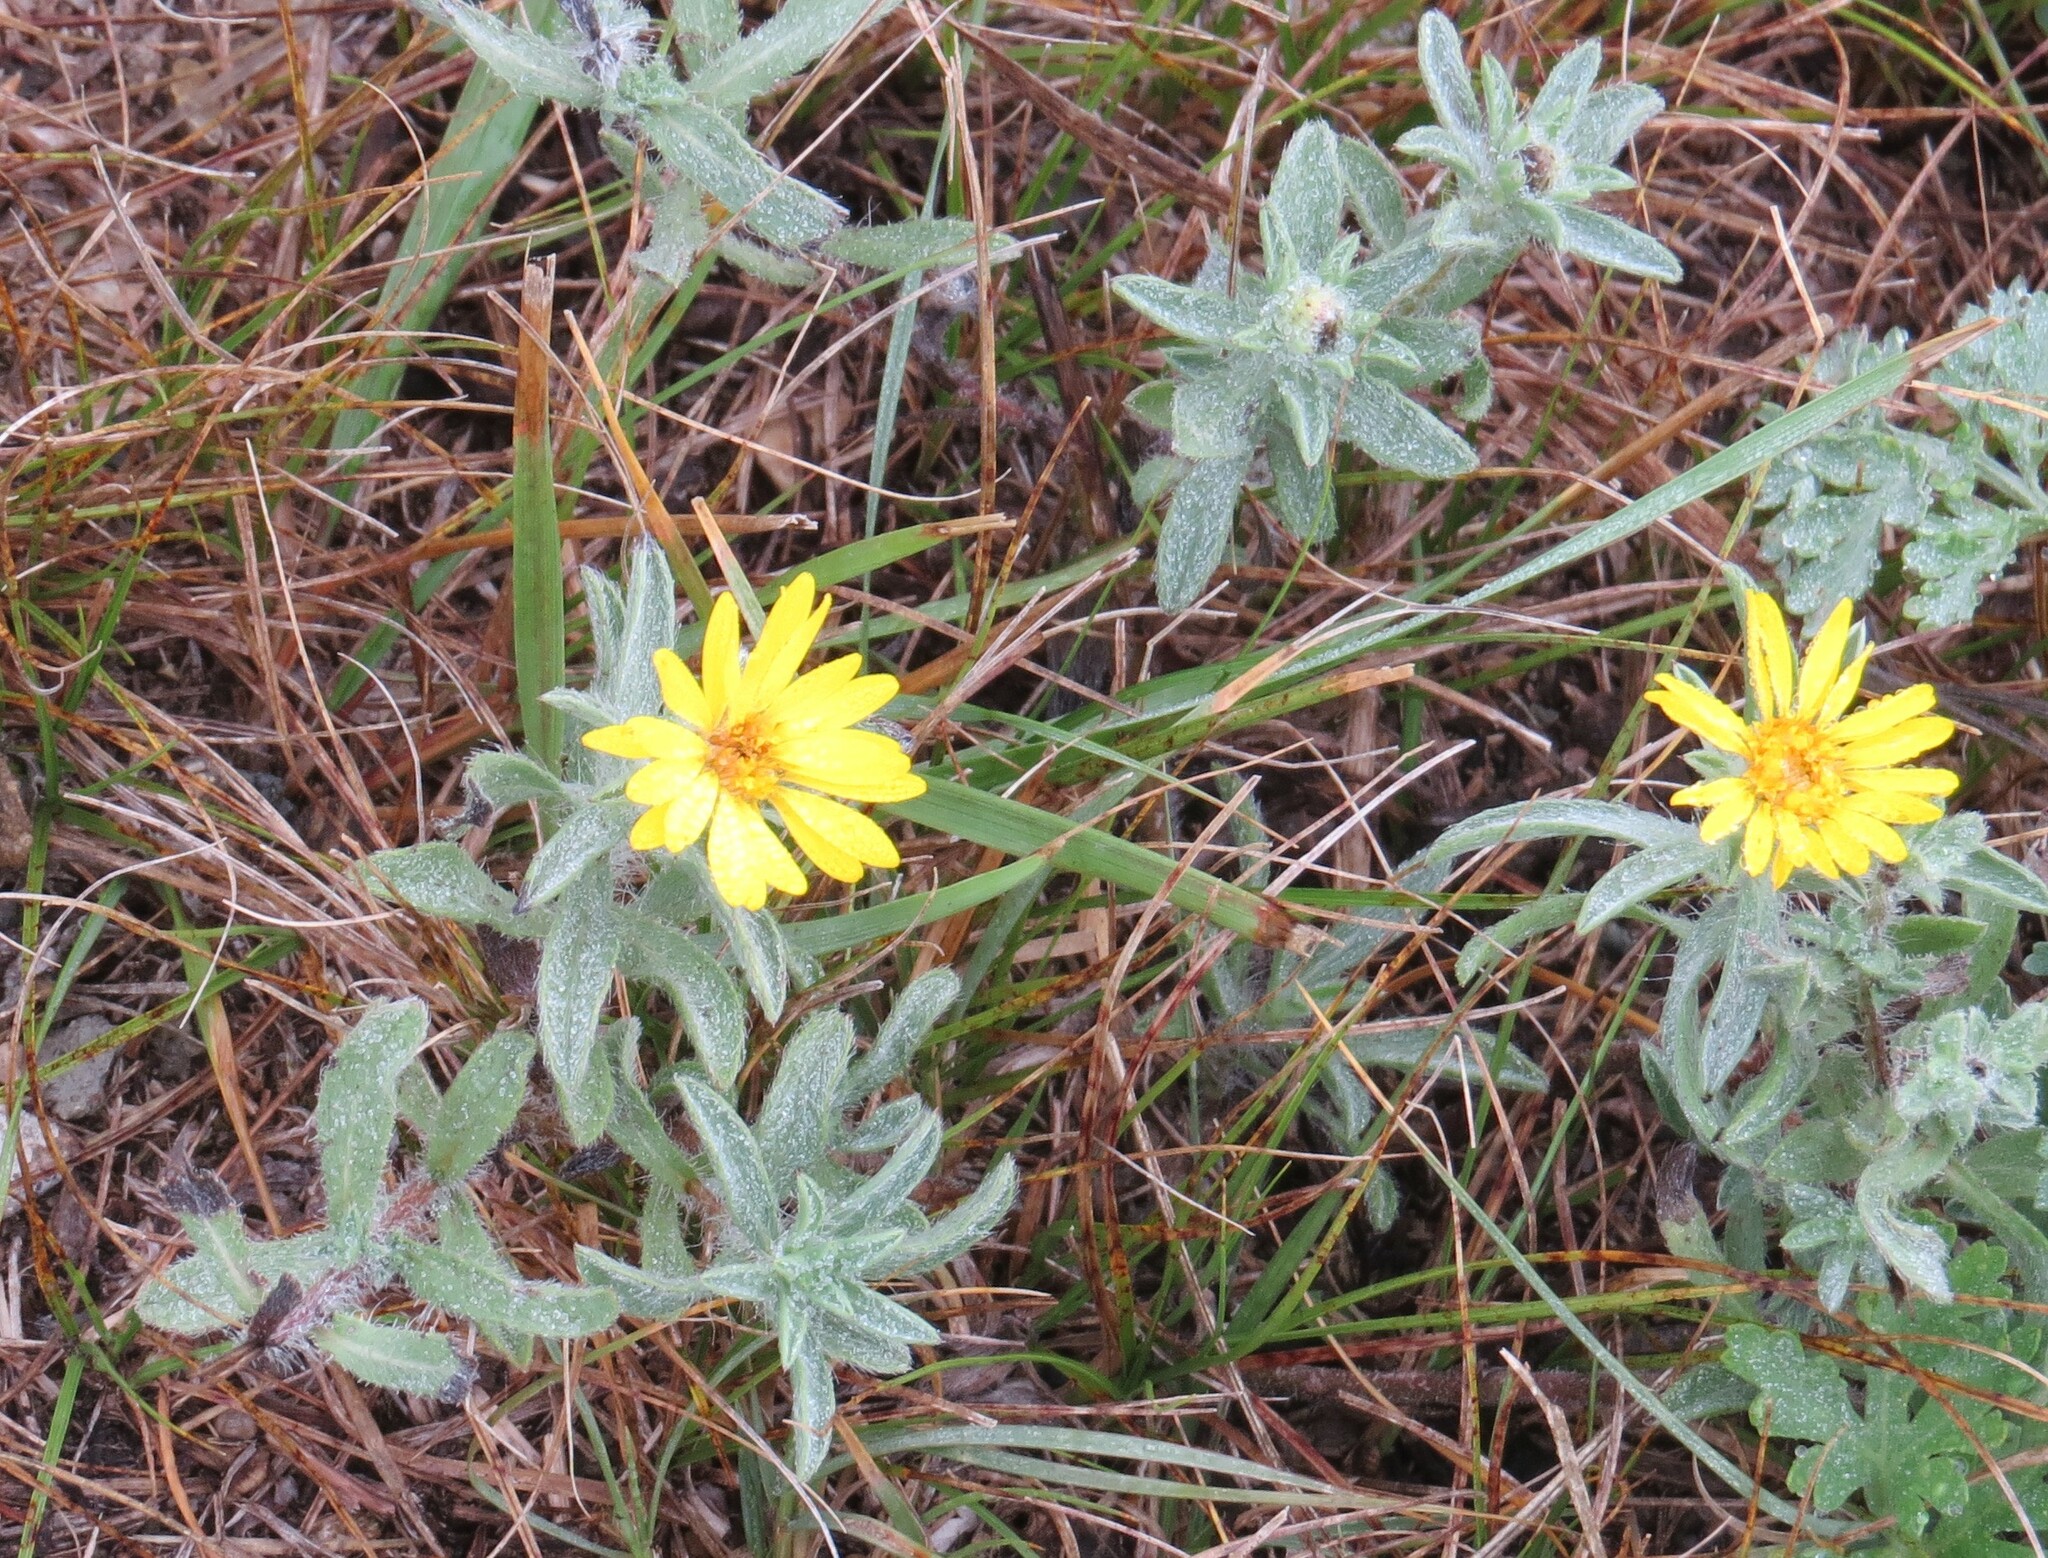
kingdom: Plantae
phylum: Tracheophyta
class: Magnoliopsida
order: Asterales
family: Asteraceae
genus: Heterotheca
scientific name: Heterotheca villosa
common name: Hairy false goldenaster
